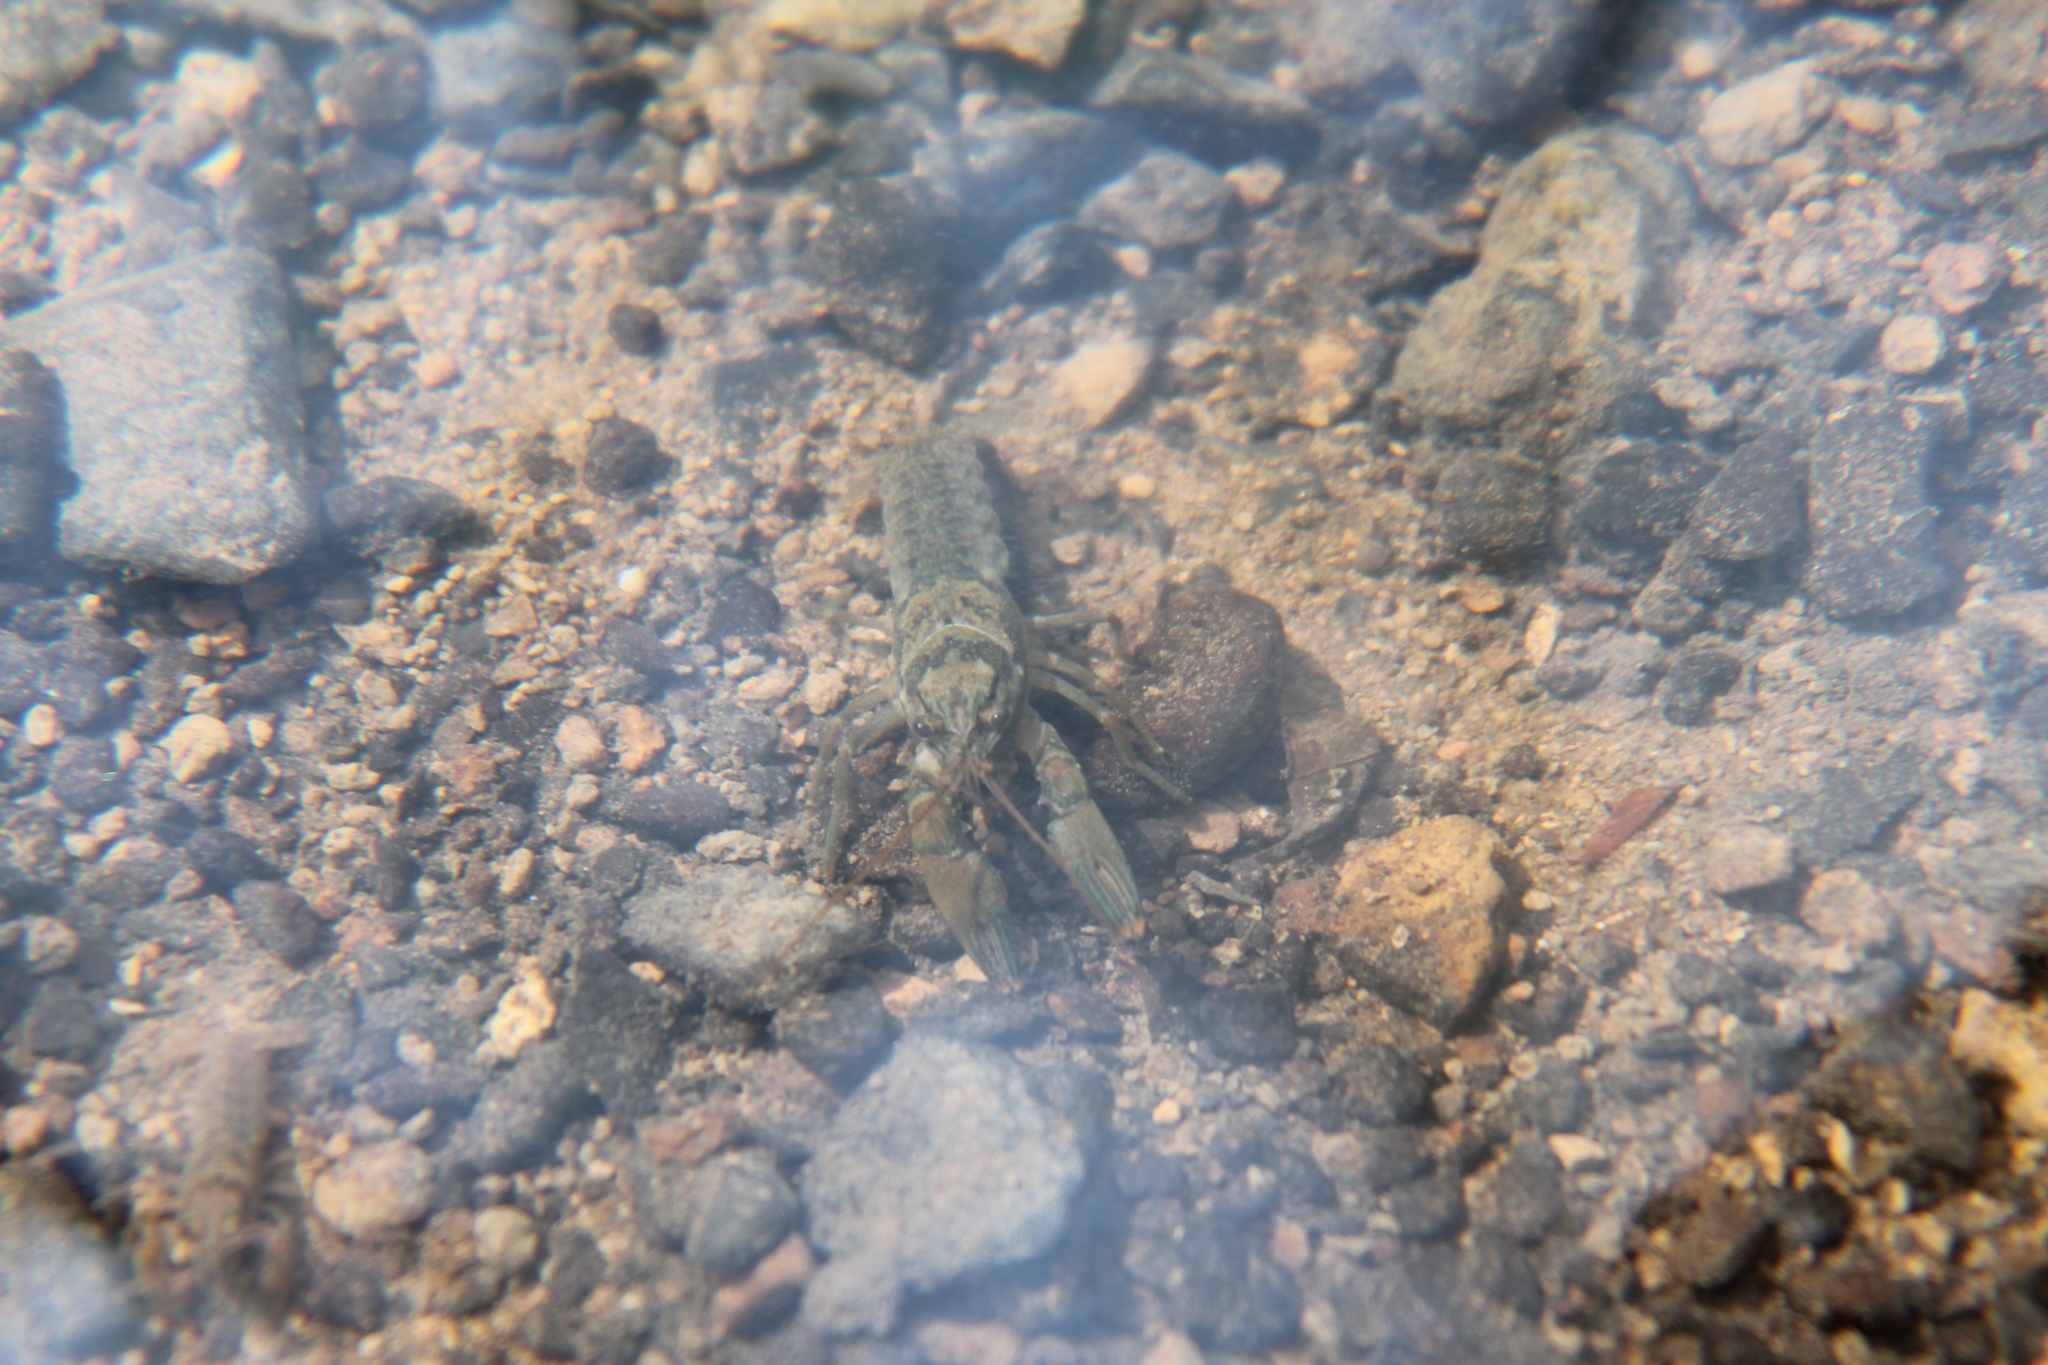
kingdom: Animalia
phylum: Arthropoda
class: Malacostraca
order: Decapoda
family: Cambaridae
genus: Faxonius
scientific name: Faxonius rhoadesi
